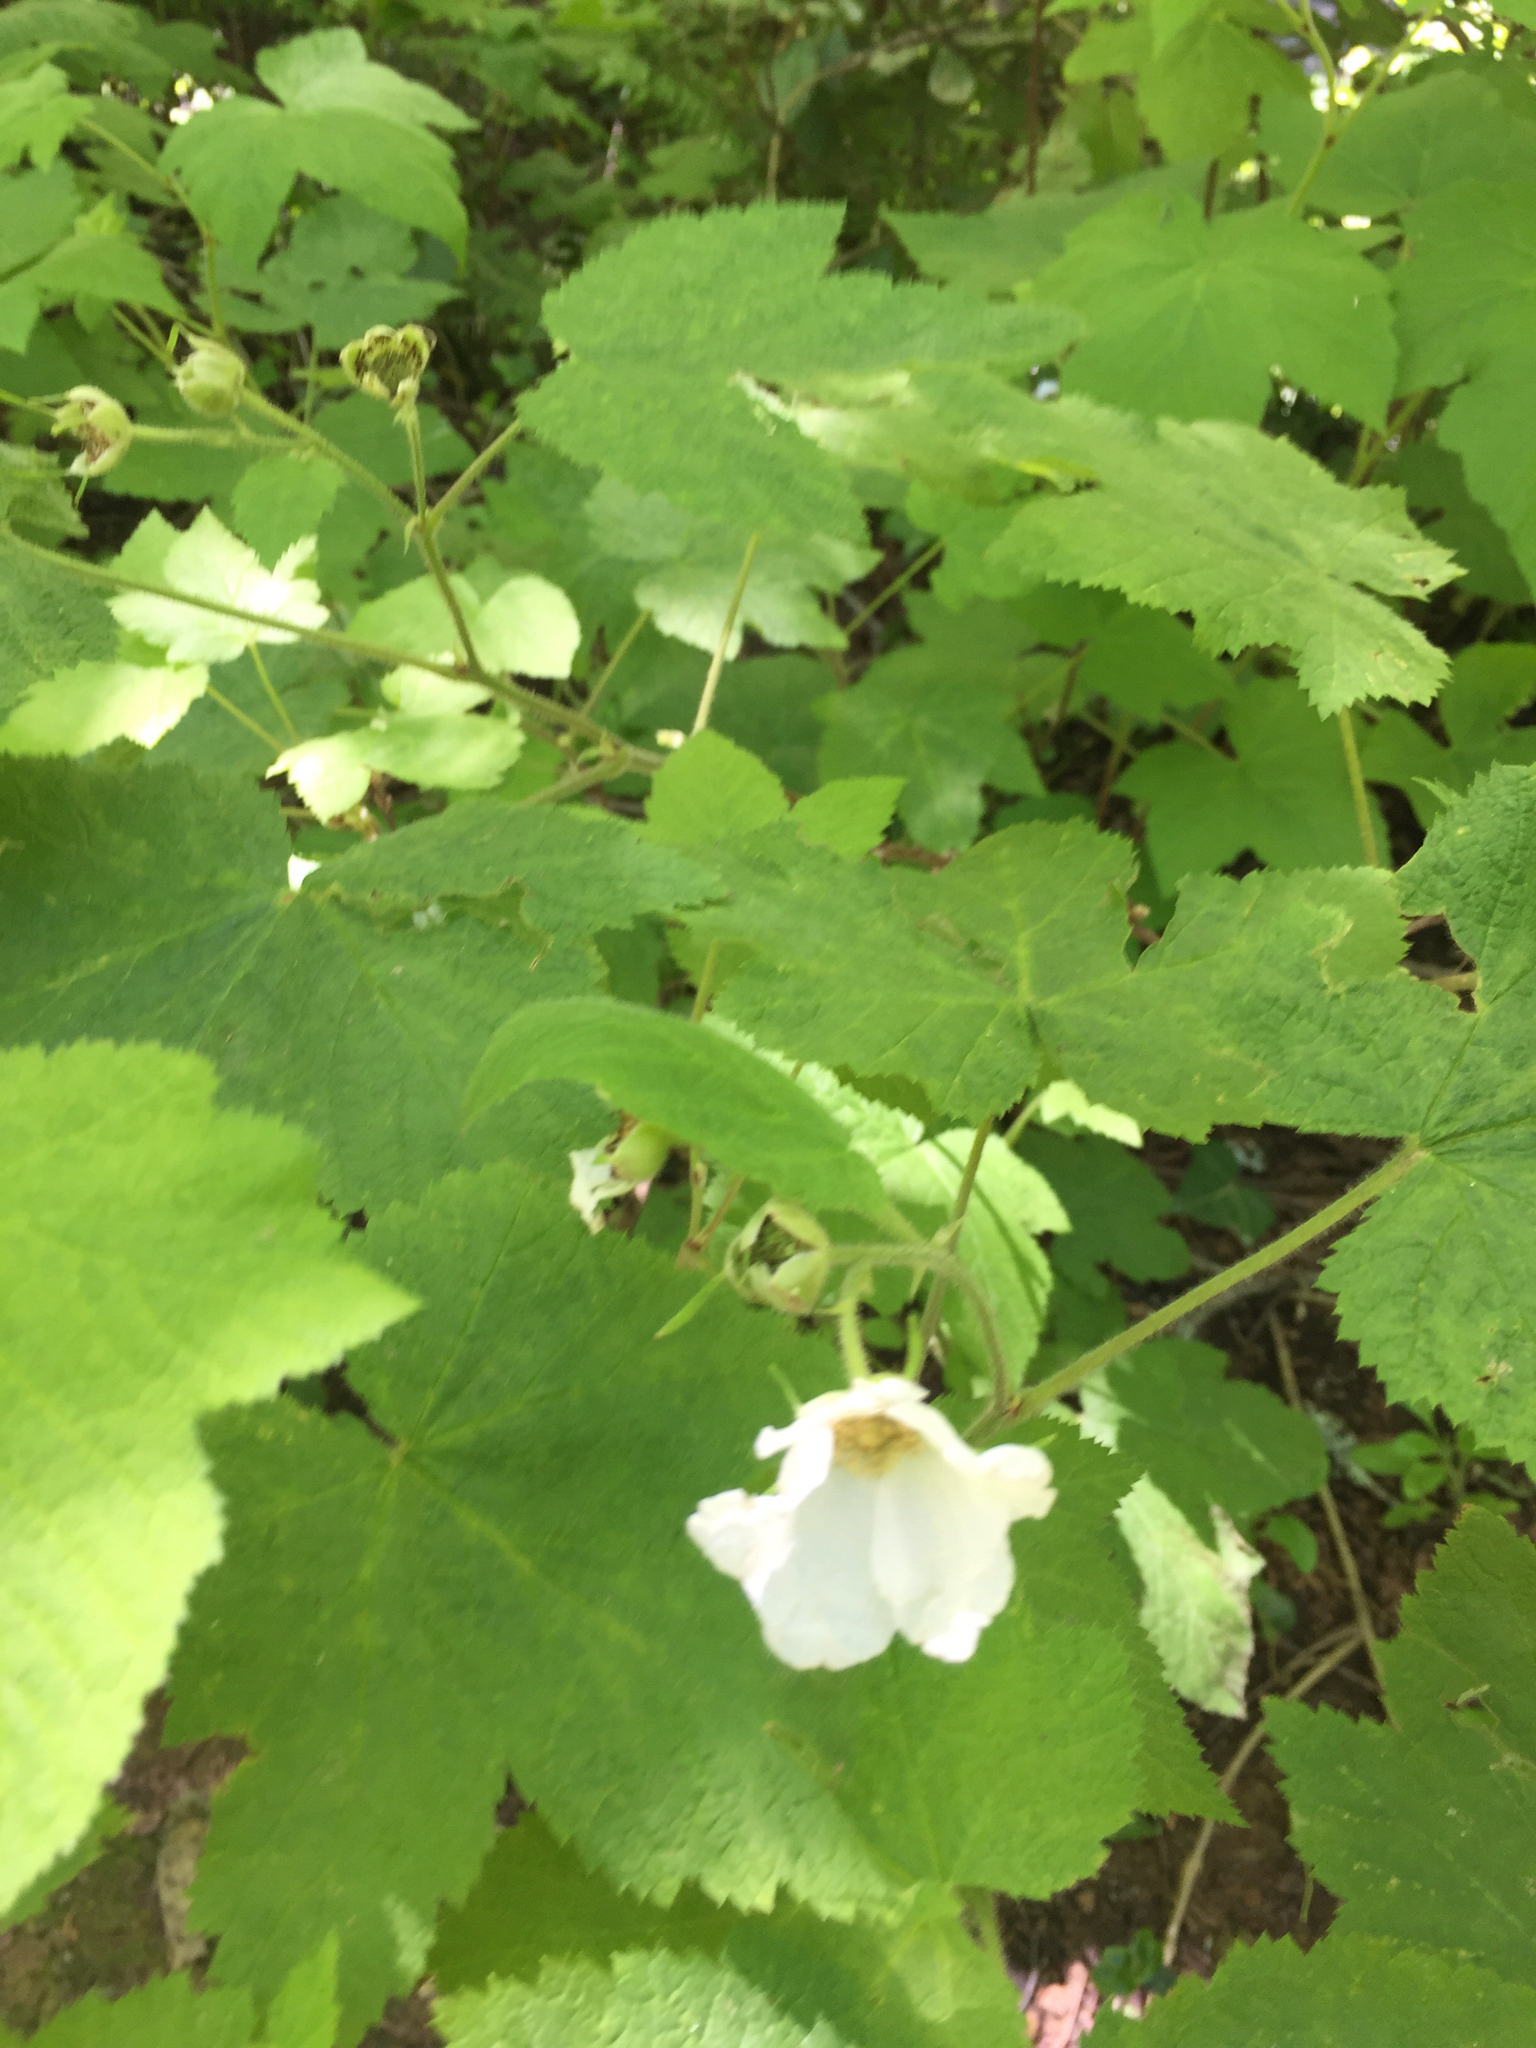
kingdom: Plantae
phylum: Tracheophyta
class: Magnoliopsida
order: Rosales
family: Rosaceae
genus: Rubus
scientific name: Rubus parviflorus
